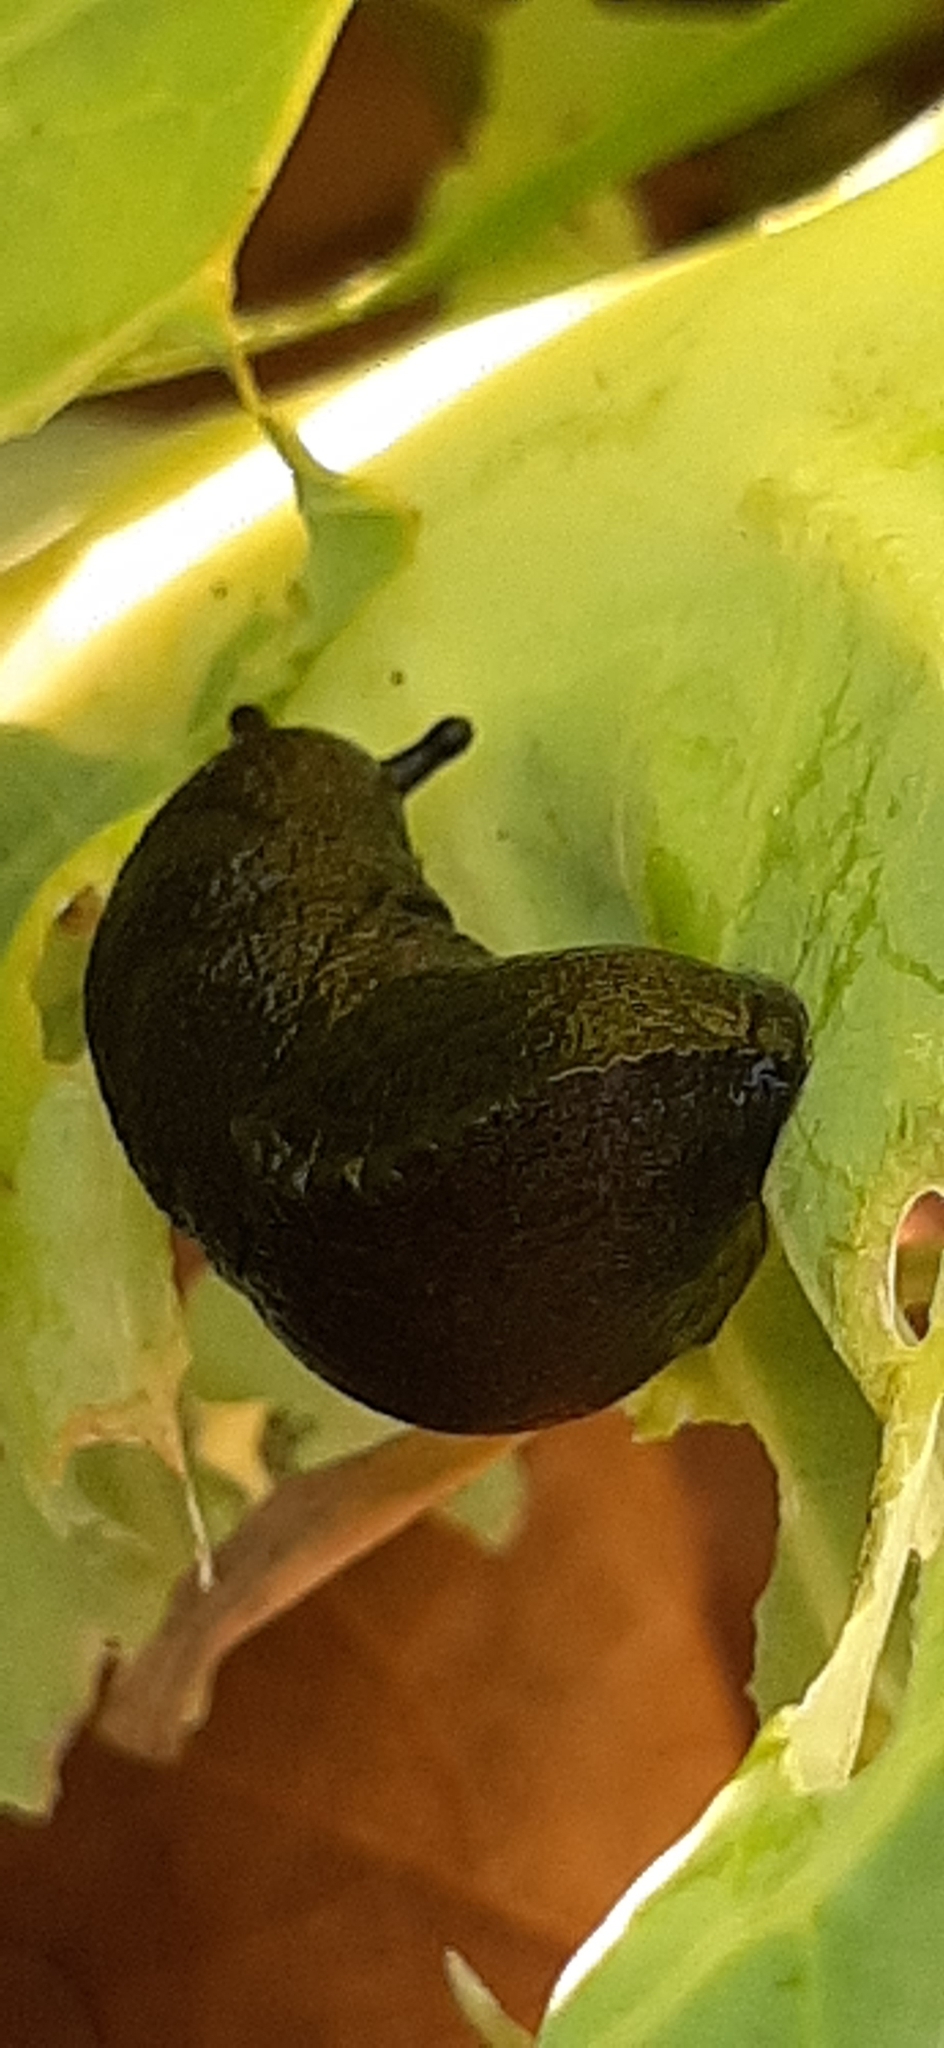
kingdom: Animalia
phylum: Mollusca
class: Gastropoda
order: Stylommatophora
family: Milacidae
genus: Milax
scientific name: Milax gagates
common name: Greenhouse slug
